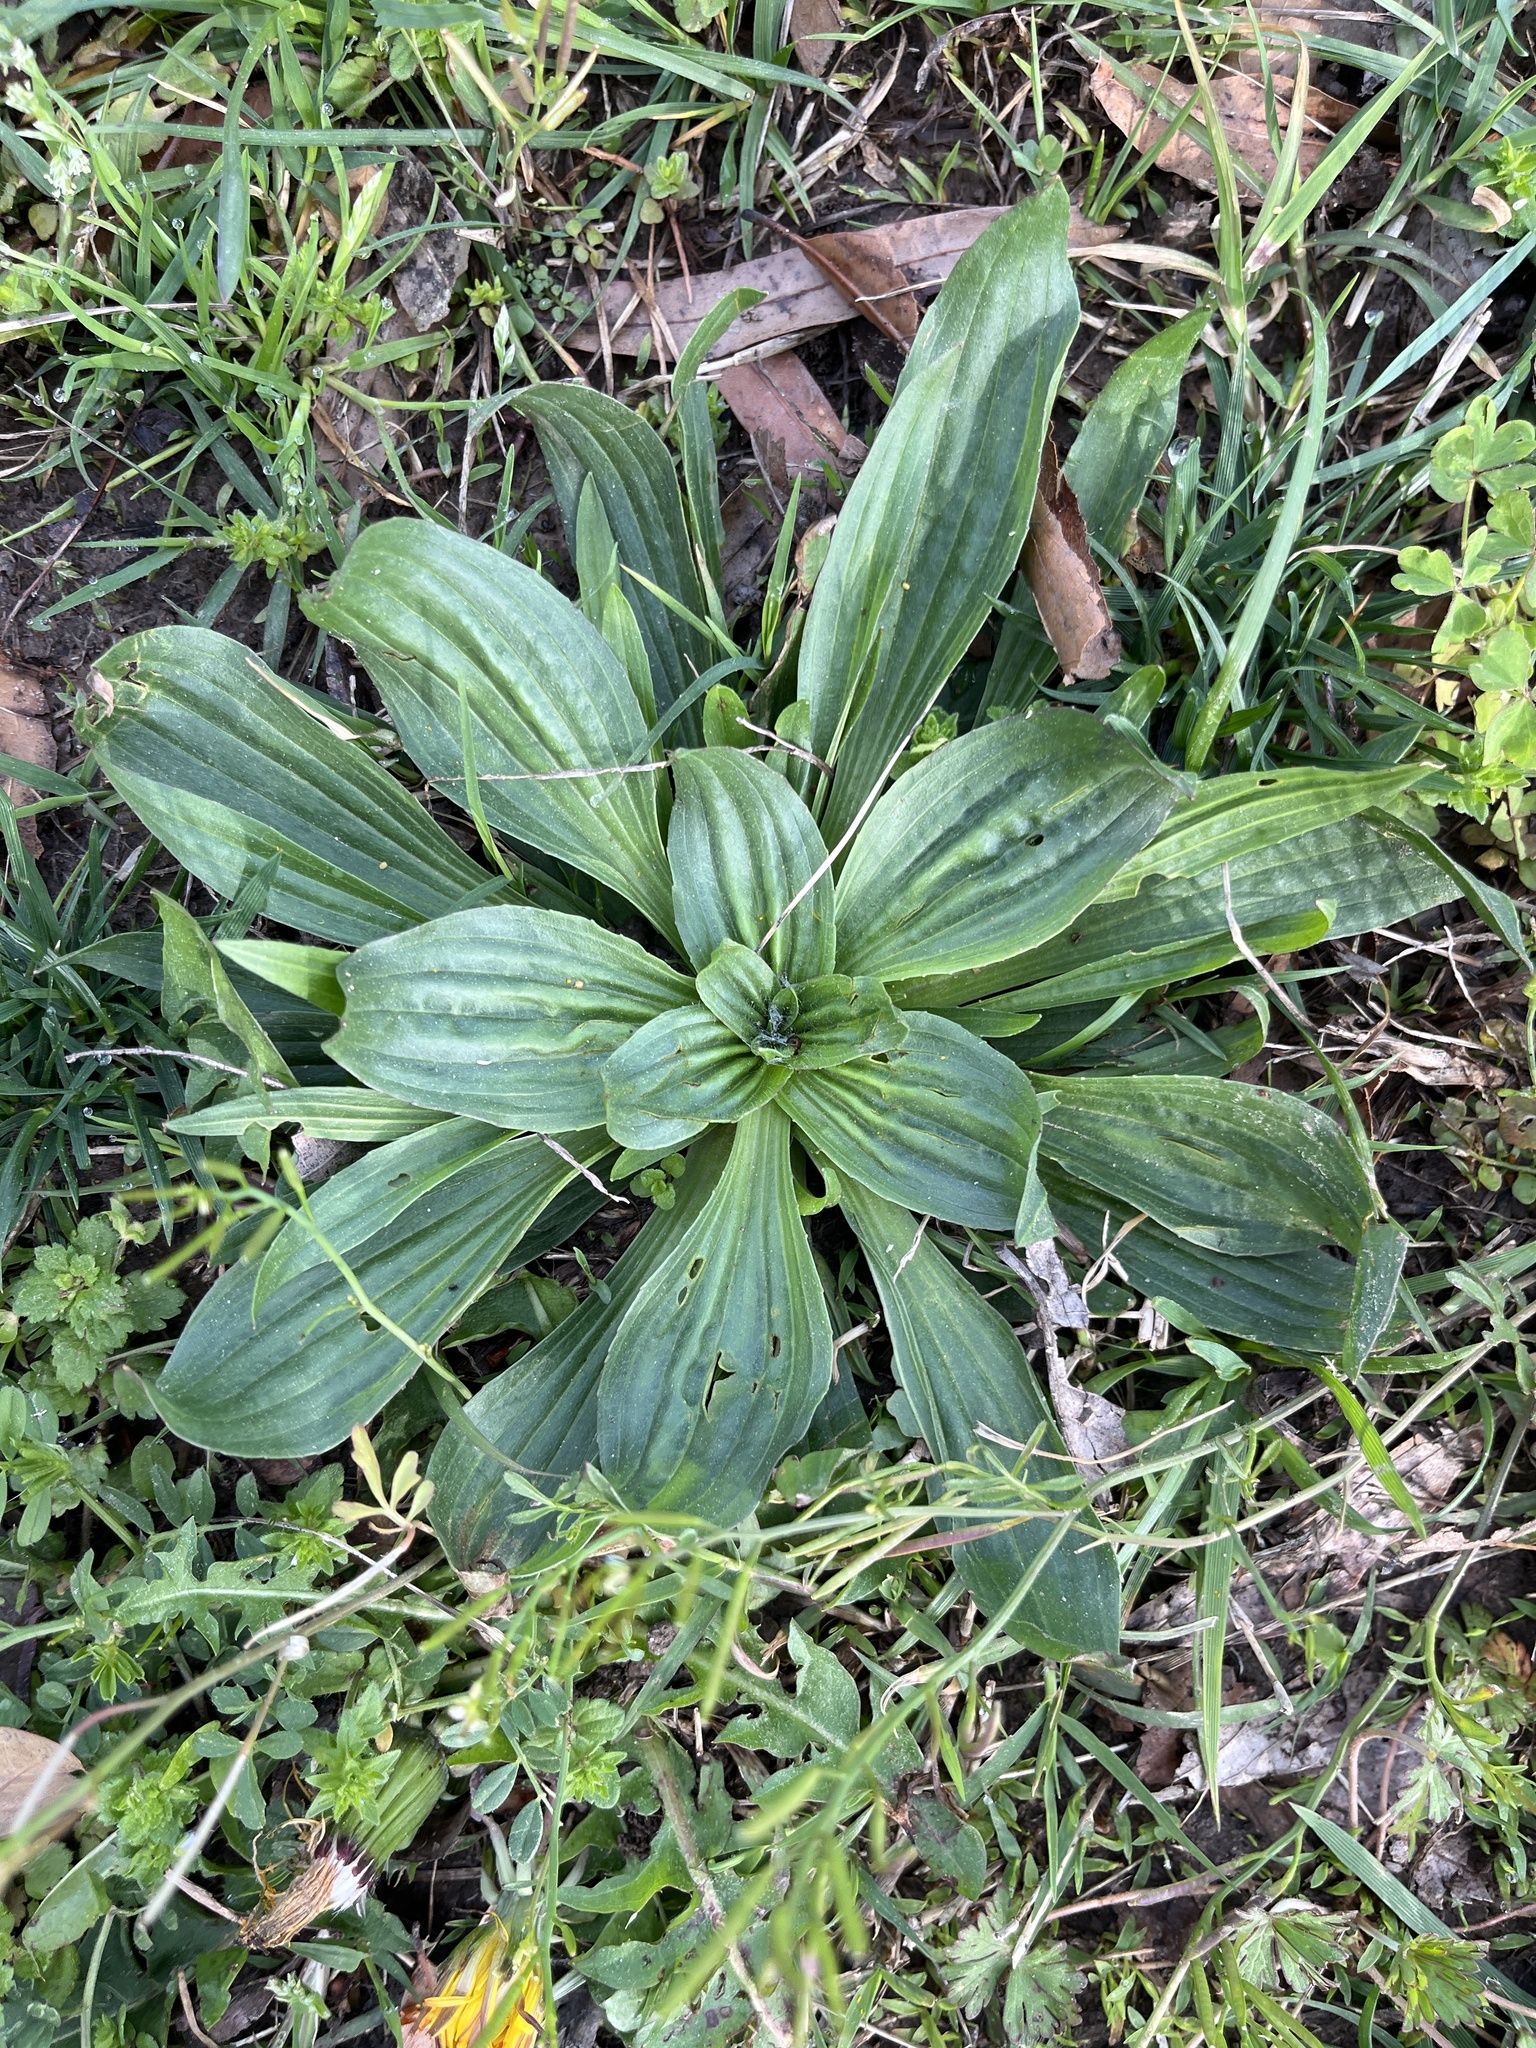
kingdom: Plantae
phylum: Tracheophyta
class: Magnoliopsida
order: Lamiales
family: Plantaginaceae
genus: Plantago
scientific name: Plantago lanceolata
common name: Ribwort plantain
